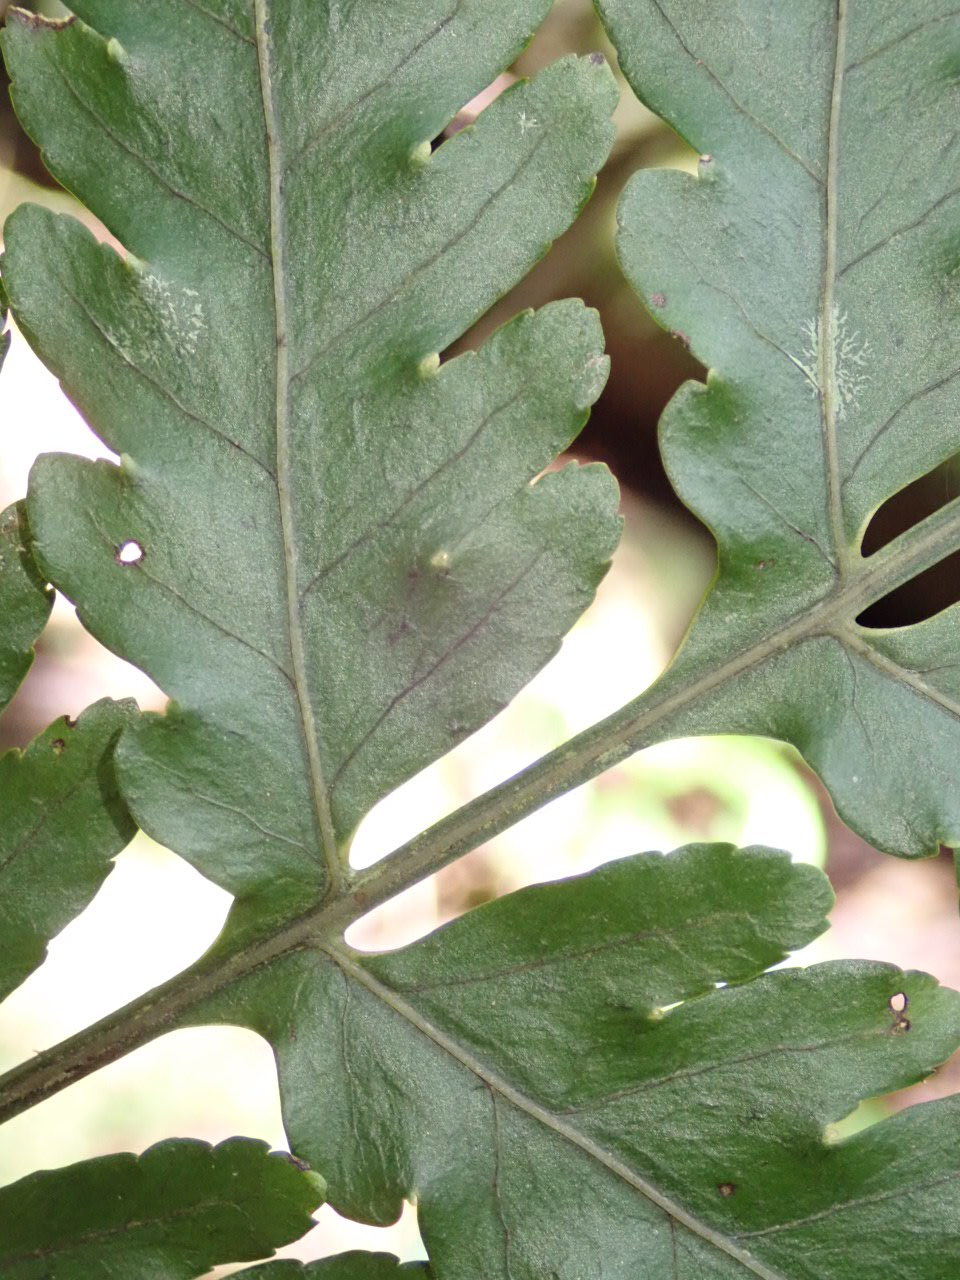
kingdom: Plantae
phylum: Tracheophyta
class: Polypodiopsida
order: Polypodiales
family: Dryopteridaceae
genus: Bolbitis
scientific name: Bolbitis bipinnatifida
